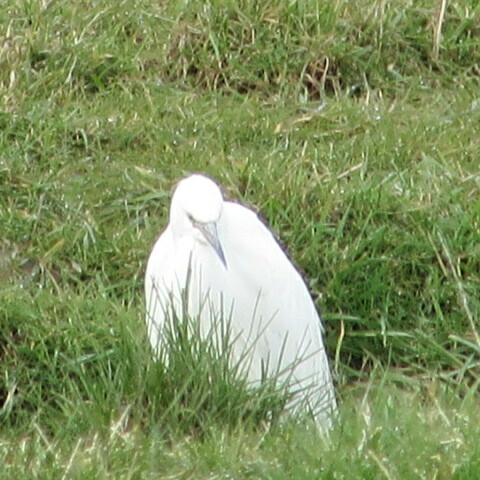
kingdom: Animalia
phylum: Chordata
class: Aves
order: Pelecaniformes
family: Ardeidae
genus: Egretta
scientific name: Egretta garzetta
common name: Little egret
